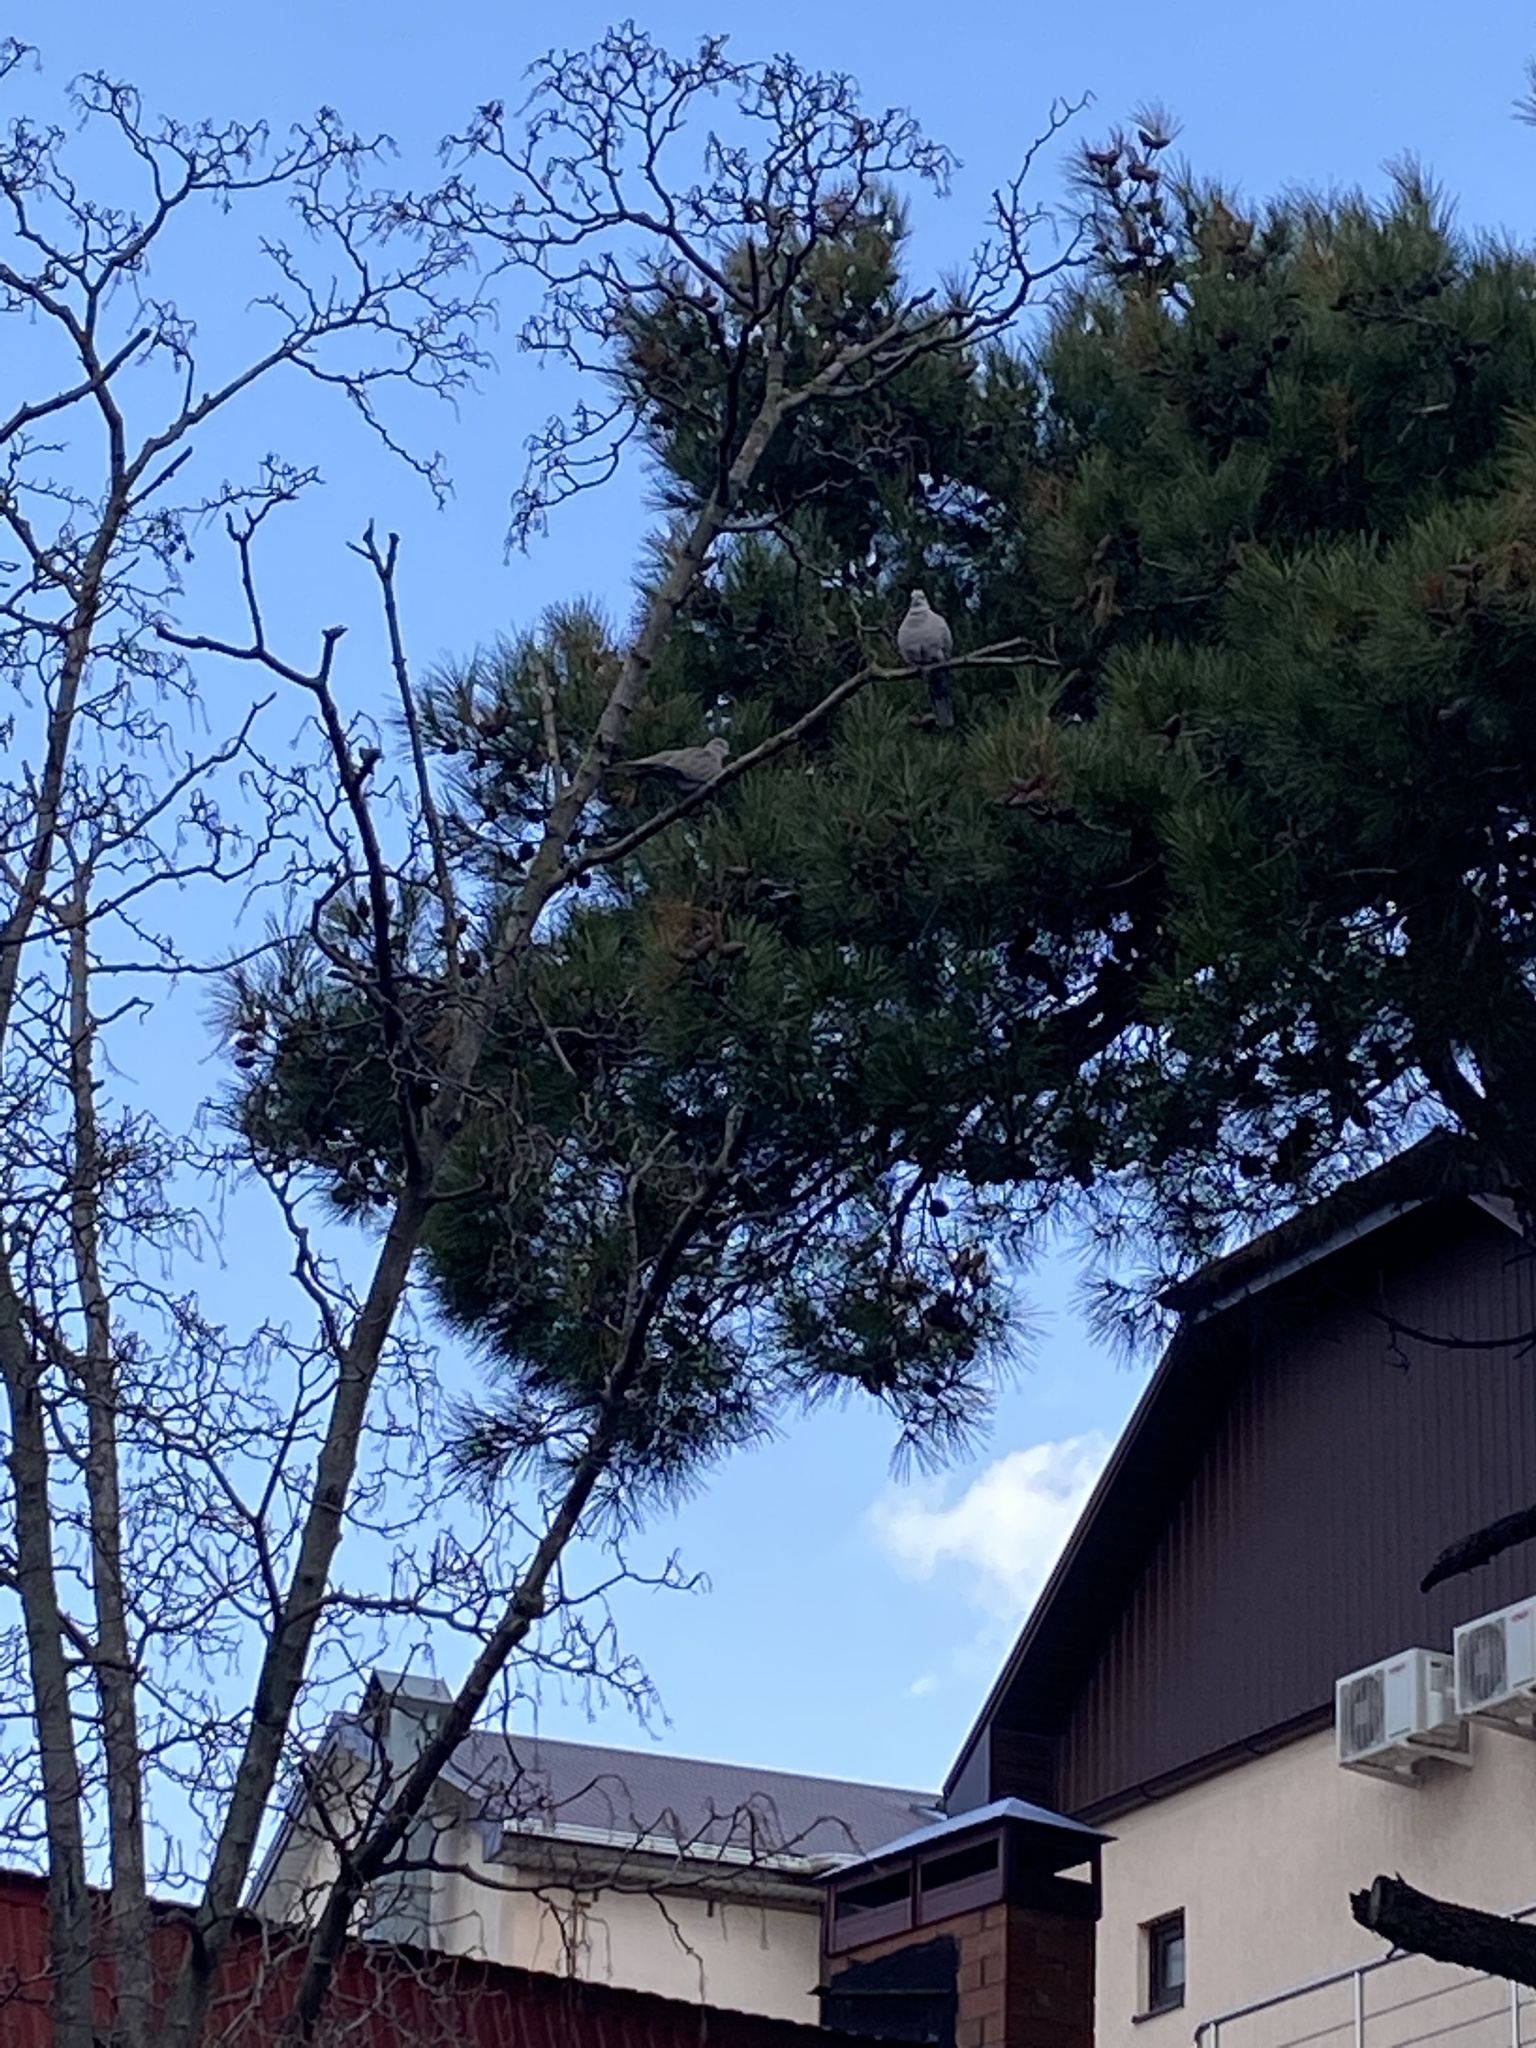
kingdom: Animalia
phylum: Chordata
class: Aves
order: Columbiformes
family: Columbidae
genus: Streptopelia
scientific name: Streptopelia decaocto
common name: Eurasian collared dove
